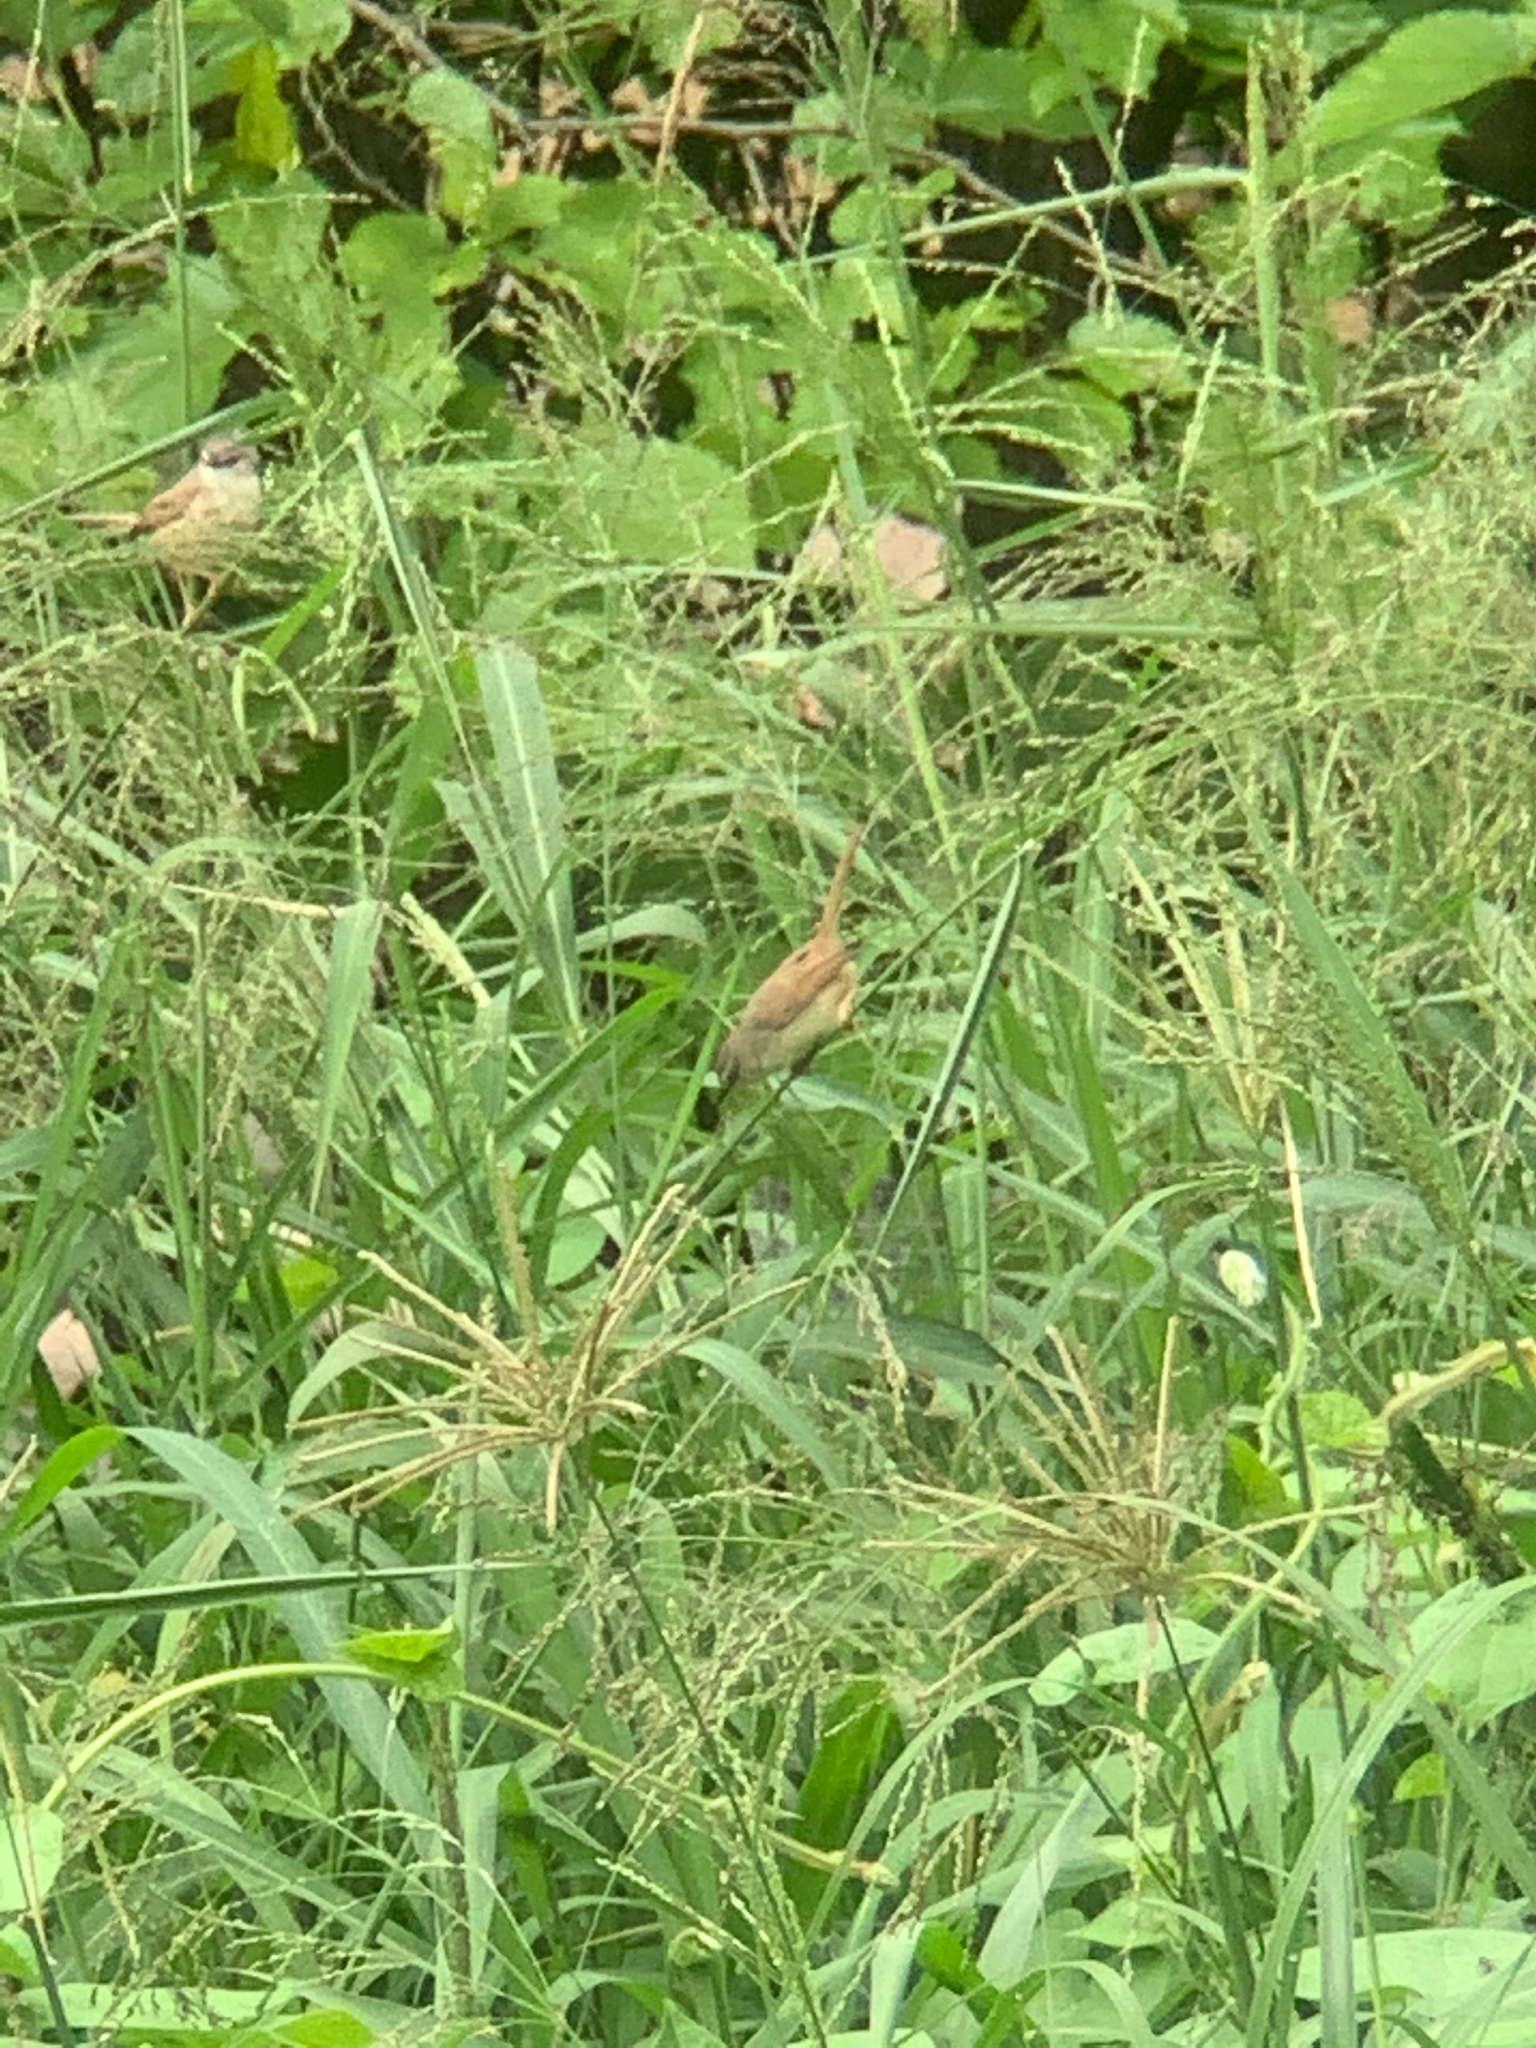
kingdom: Animalia
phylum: Chordata
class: Aves
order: Passeriformes
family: Cisticolidae
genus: Prinia
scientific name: Prinia subflava
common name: Tawny-flanked prinia
